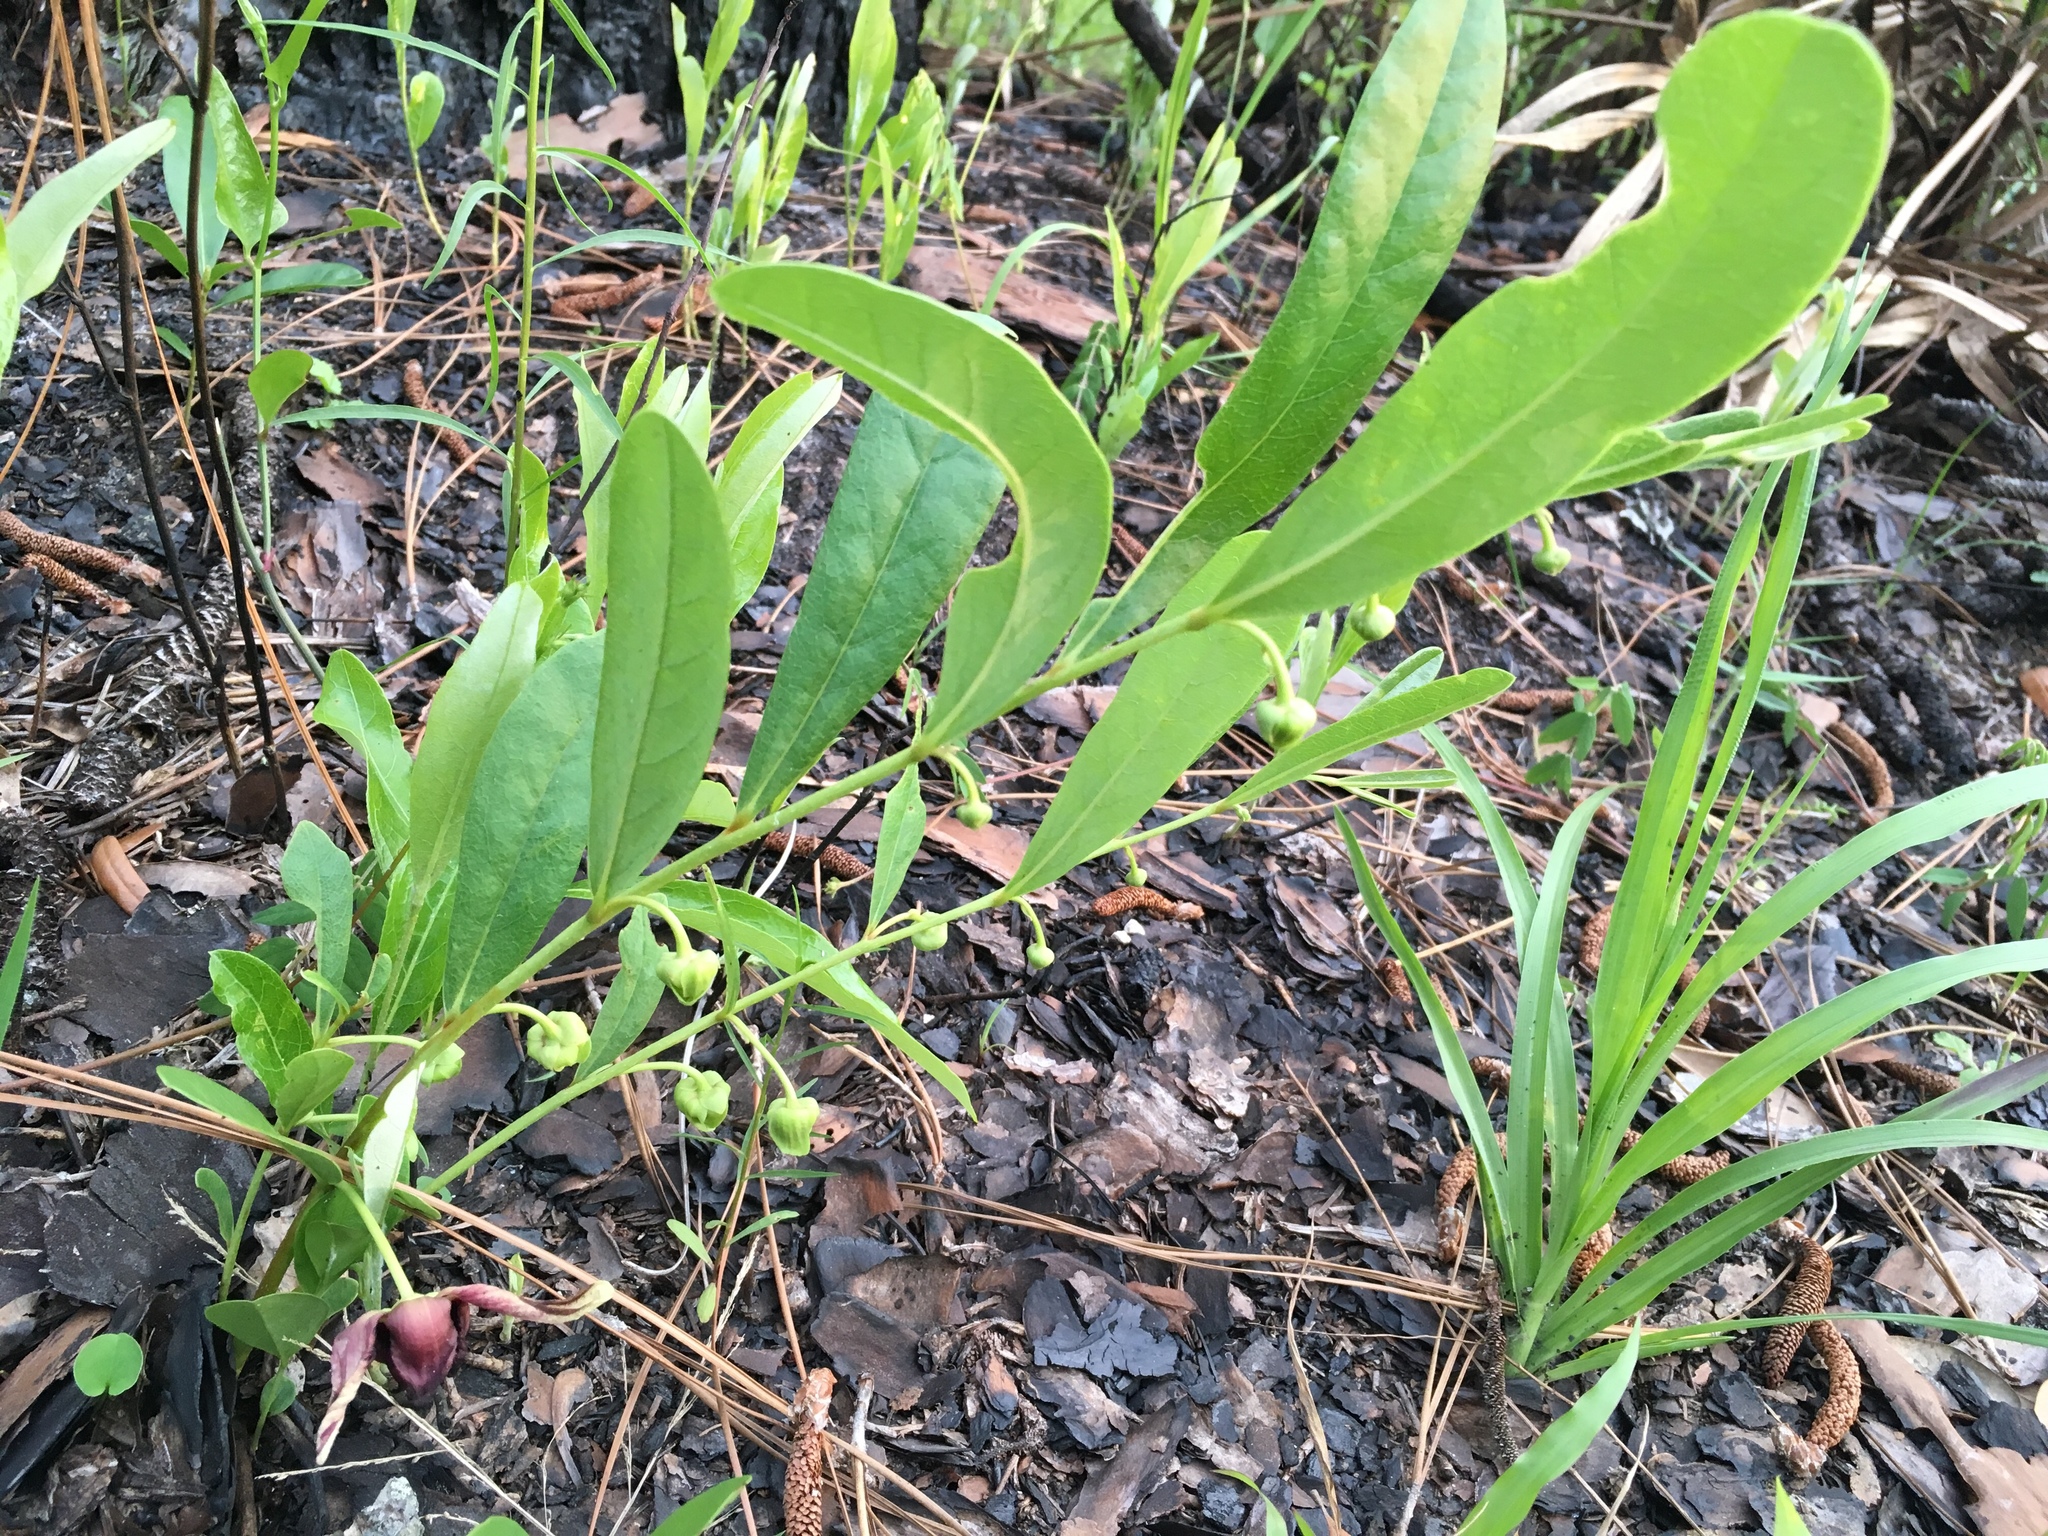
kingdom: Plantae
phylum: Tracheophyta
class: Magnoliopsida
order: Magnoliales
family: Annonaceae
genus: Asimina
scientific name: Asimina pygmaea
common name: Dwarf pawpaw
